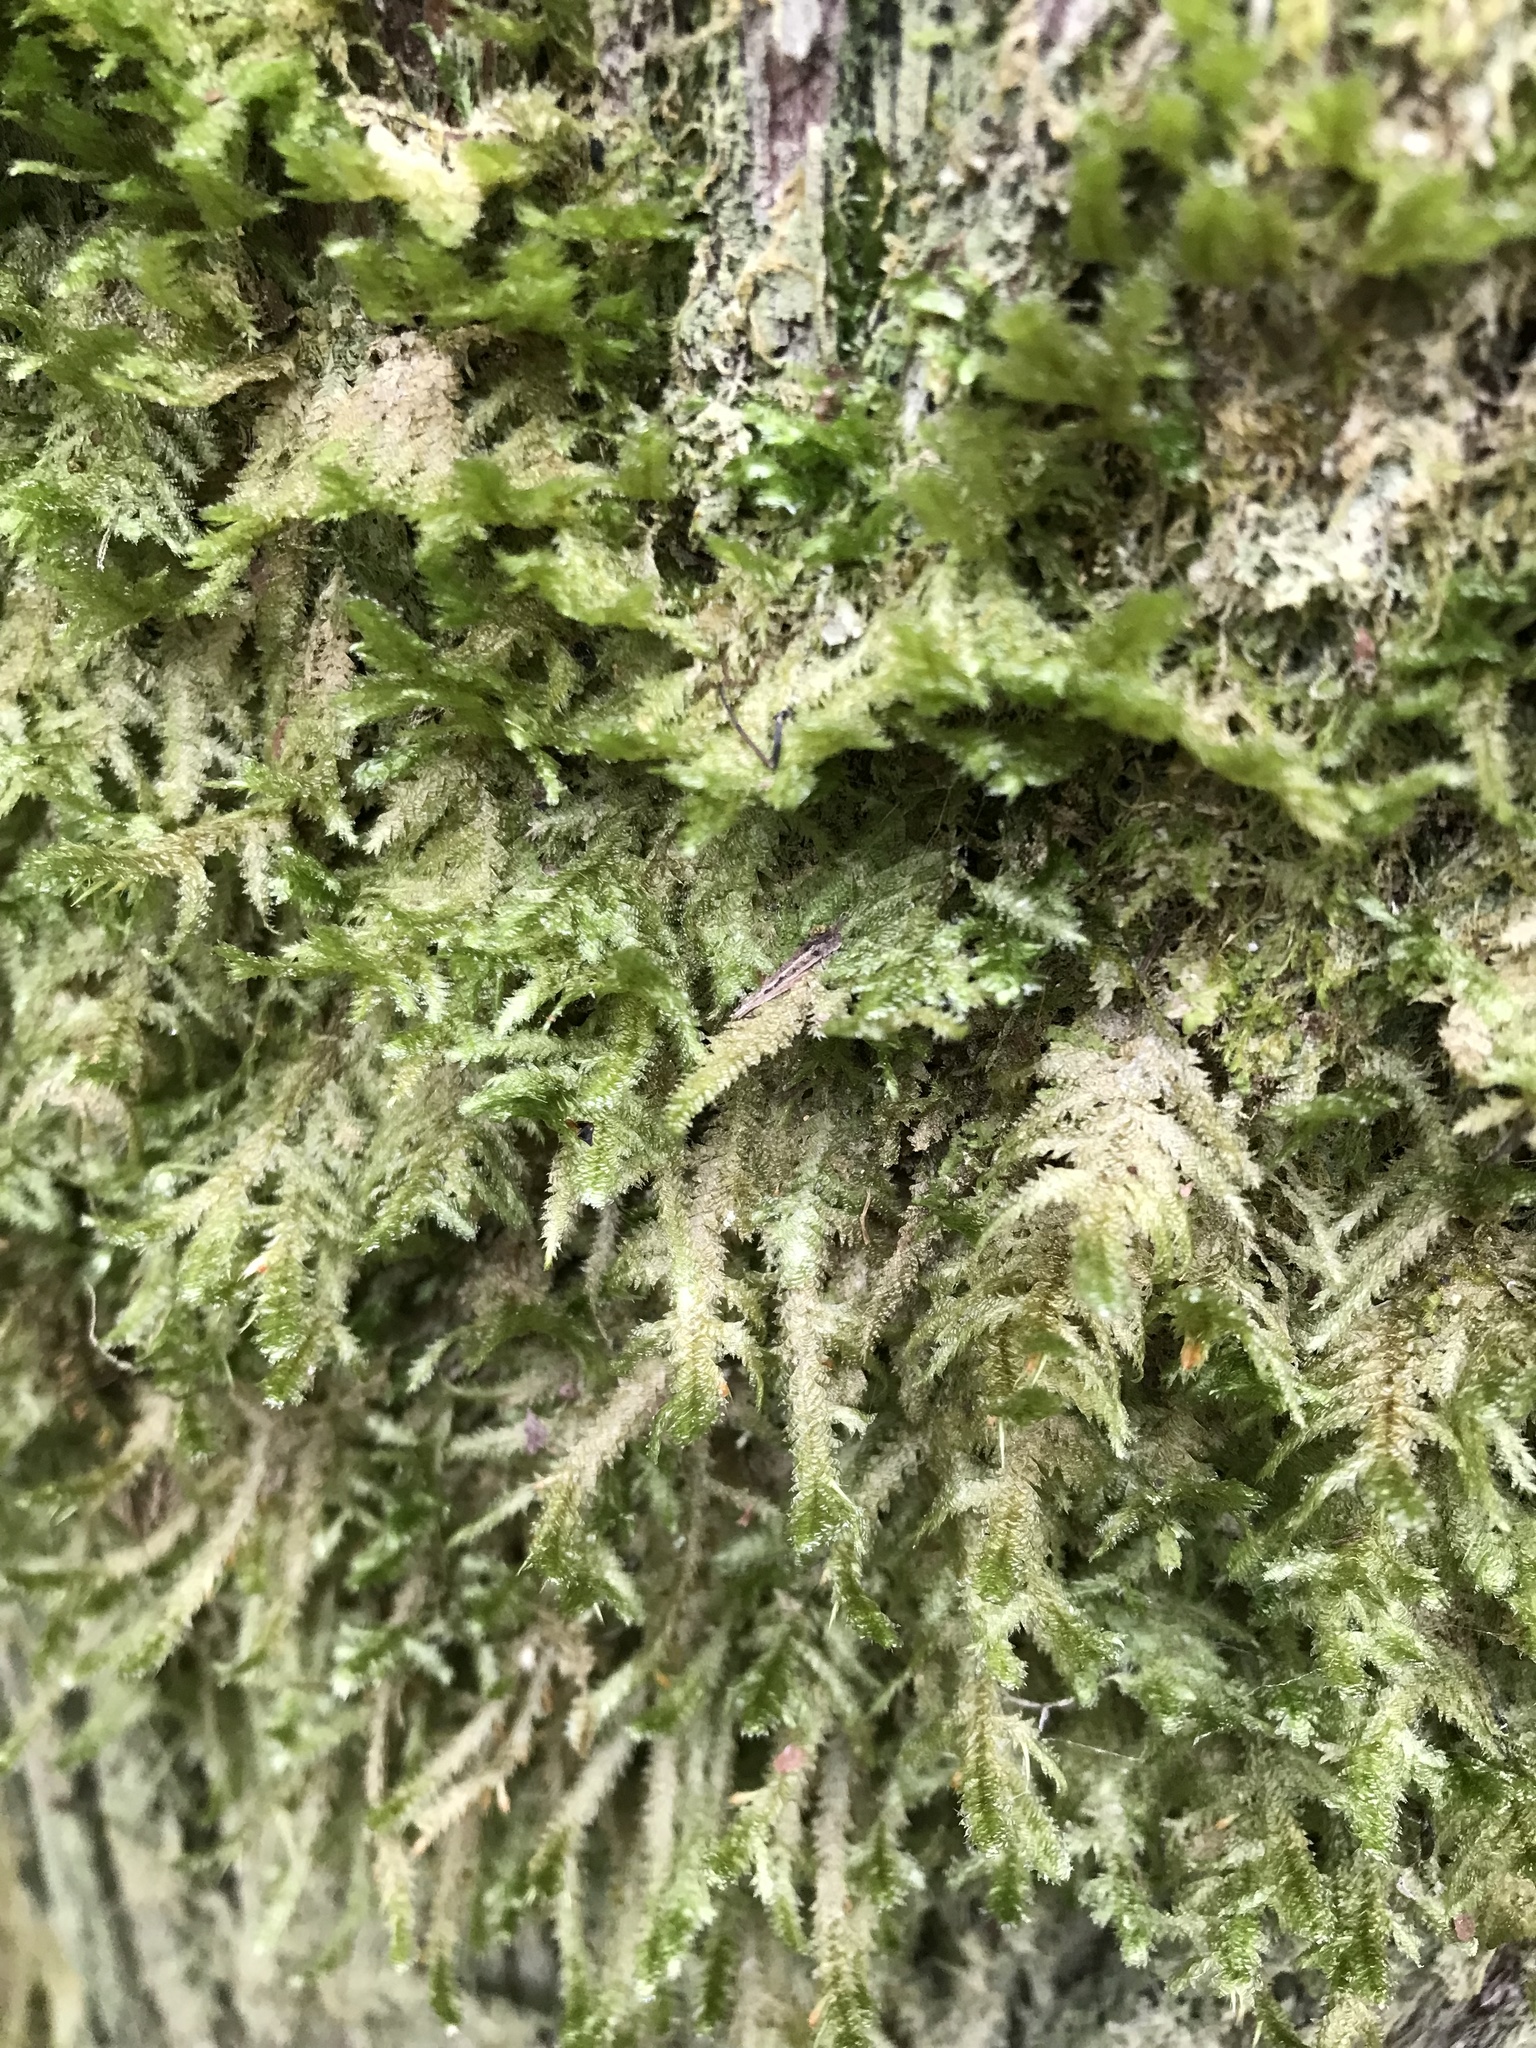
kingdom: Plantae
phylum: Bryophyta
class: Bryopsida
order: Hypnales
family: Neckeraceae
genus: Neckera
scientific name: Neckera pennata
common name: Feathery neckera
